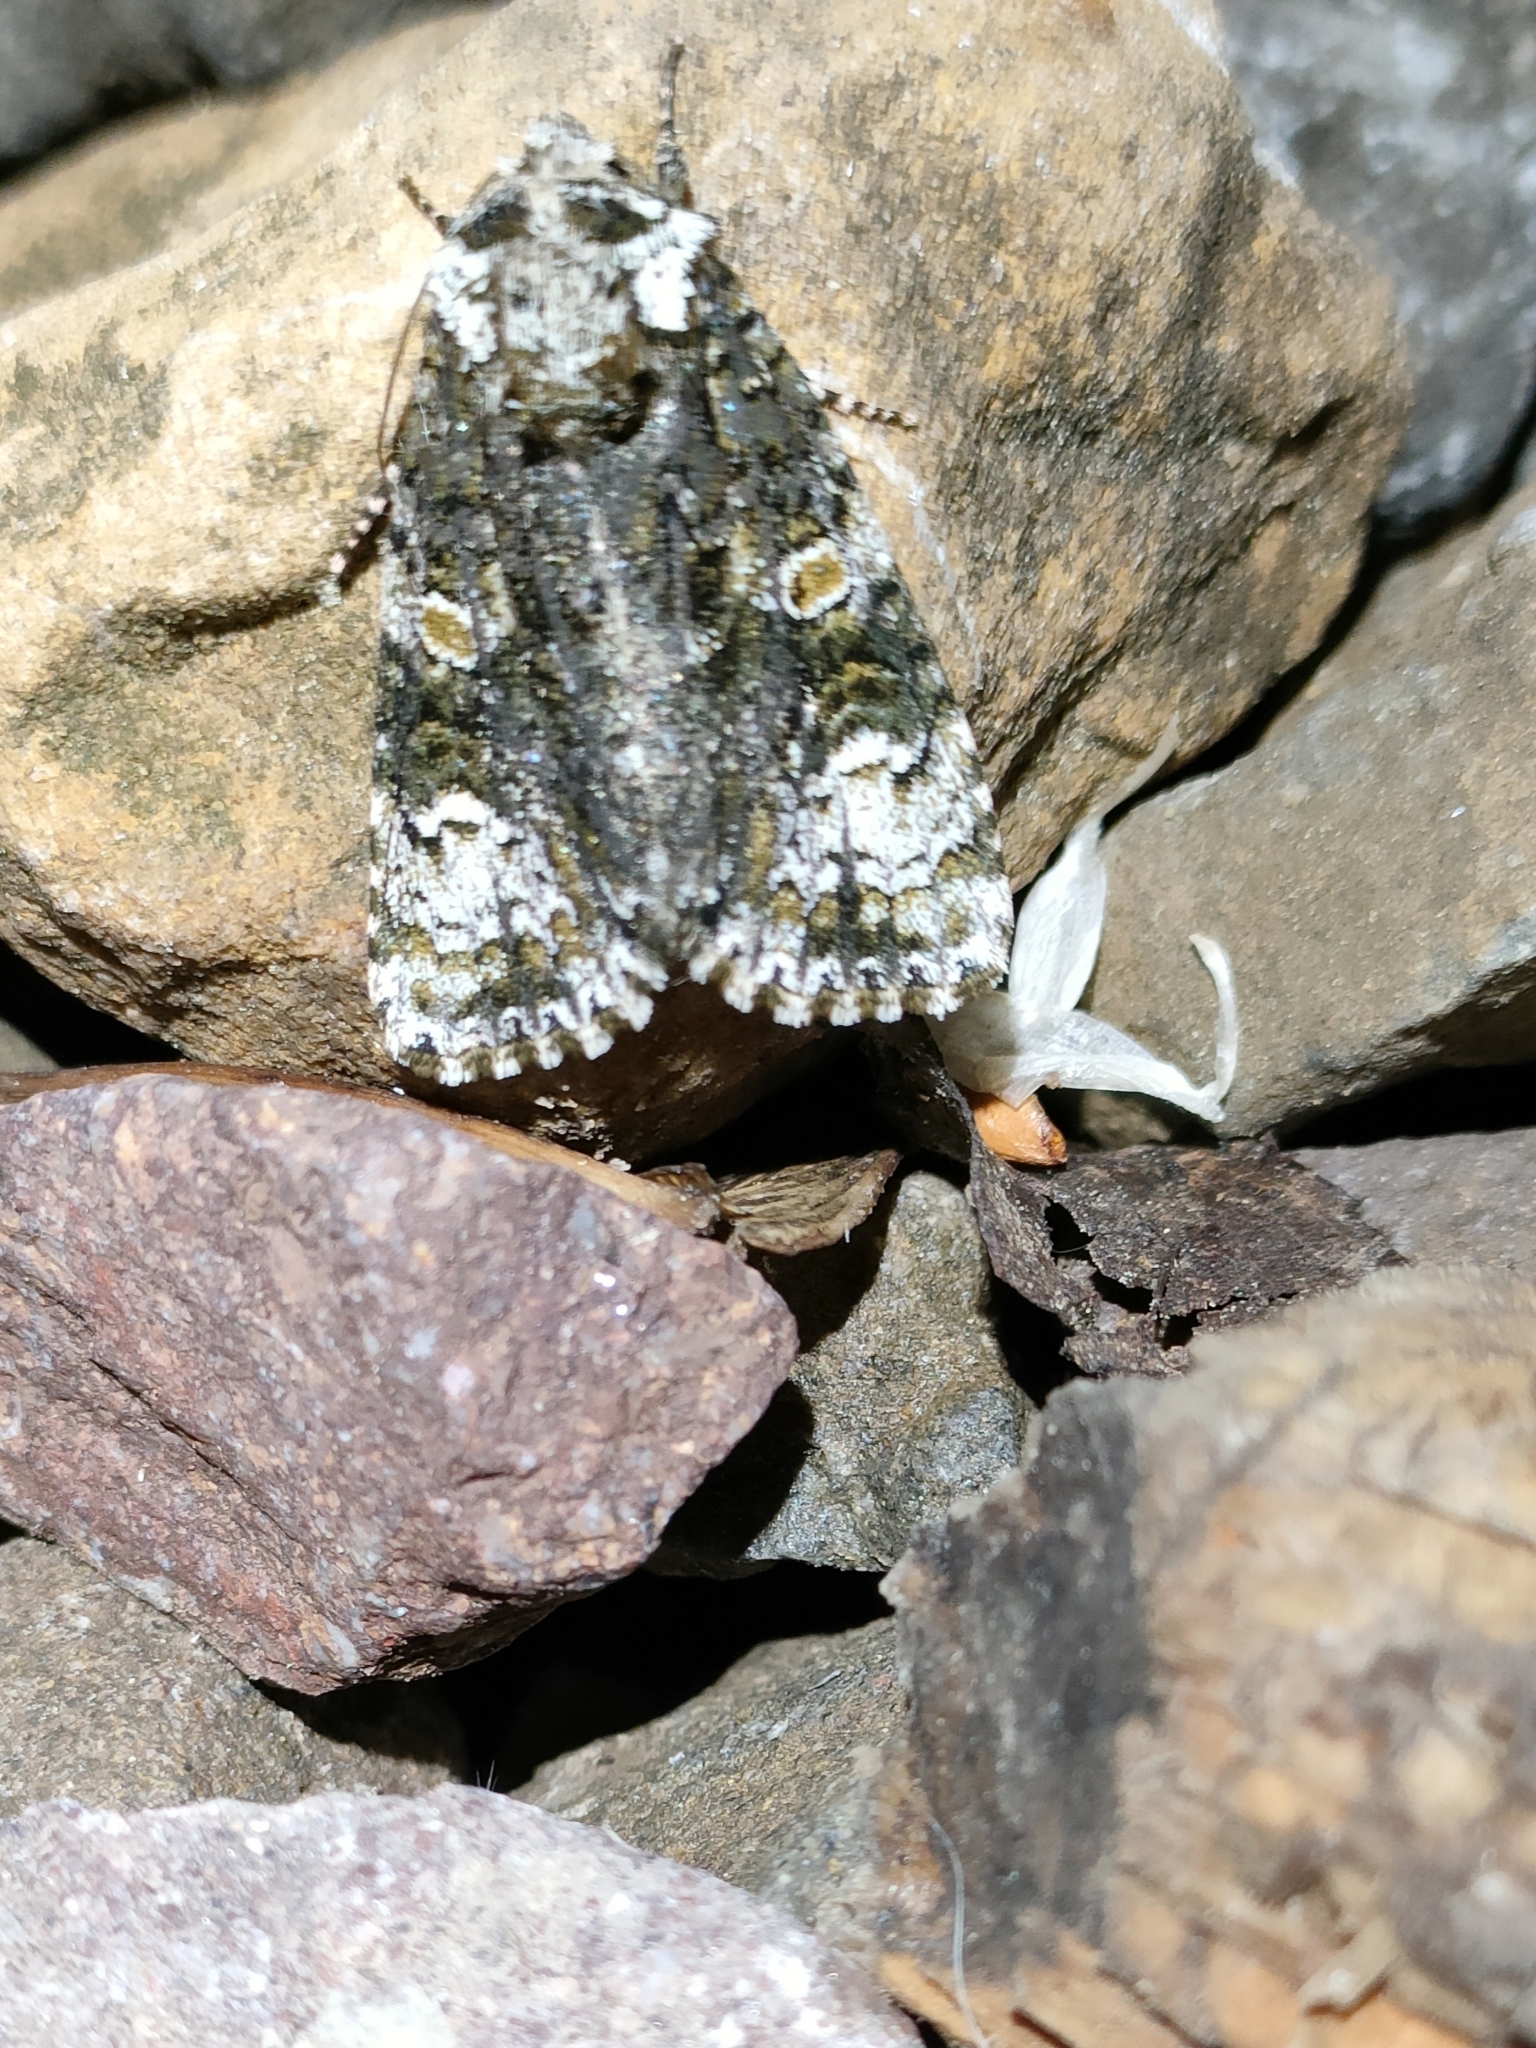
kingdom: Animalia
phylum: Arthropoda
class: Insecta
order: Lepidoptera
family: Noctuidae
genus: Craniophora
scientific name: Craniophora ligustri
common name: Coronet
